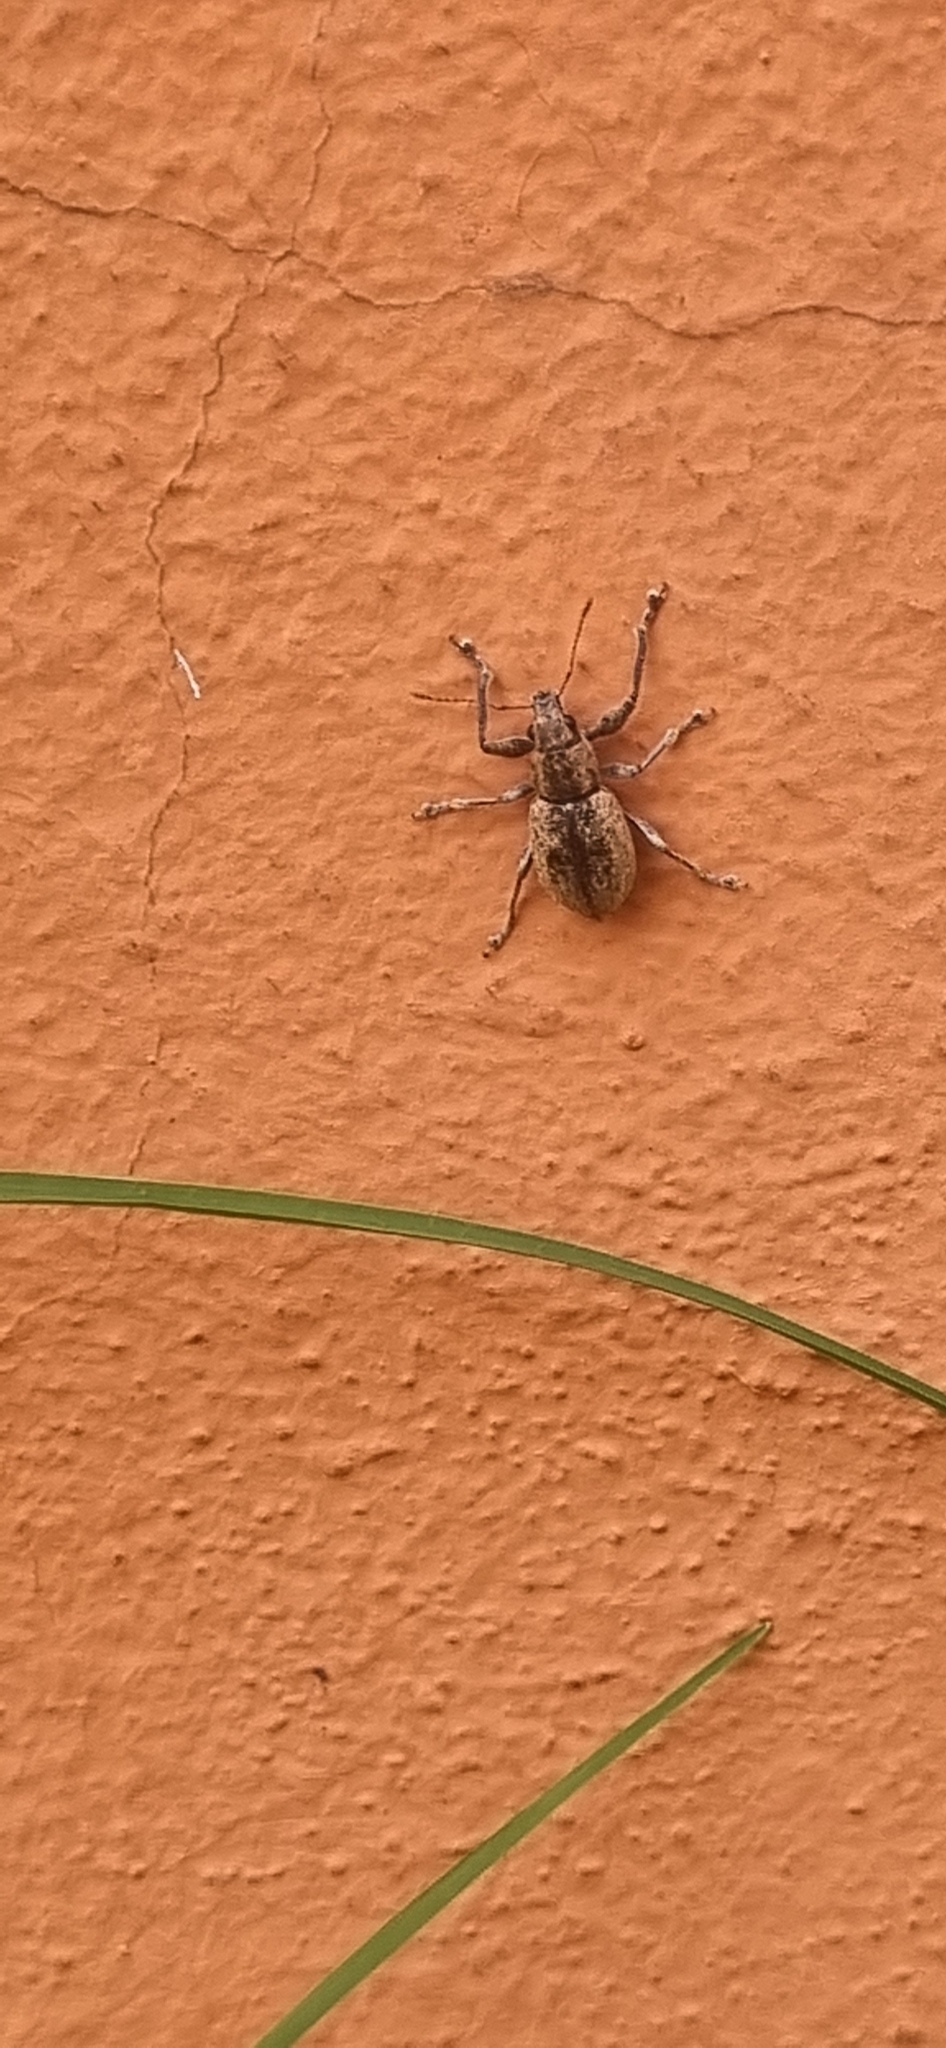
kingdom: Animalia
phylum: Arthropoda
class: Insecta
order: Coleoptera
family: Curculionidae
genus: Naupactus
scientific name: Naupactus versatilis
